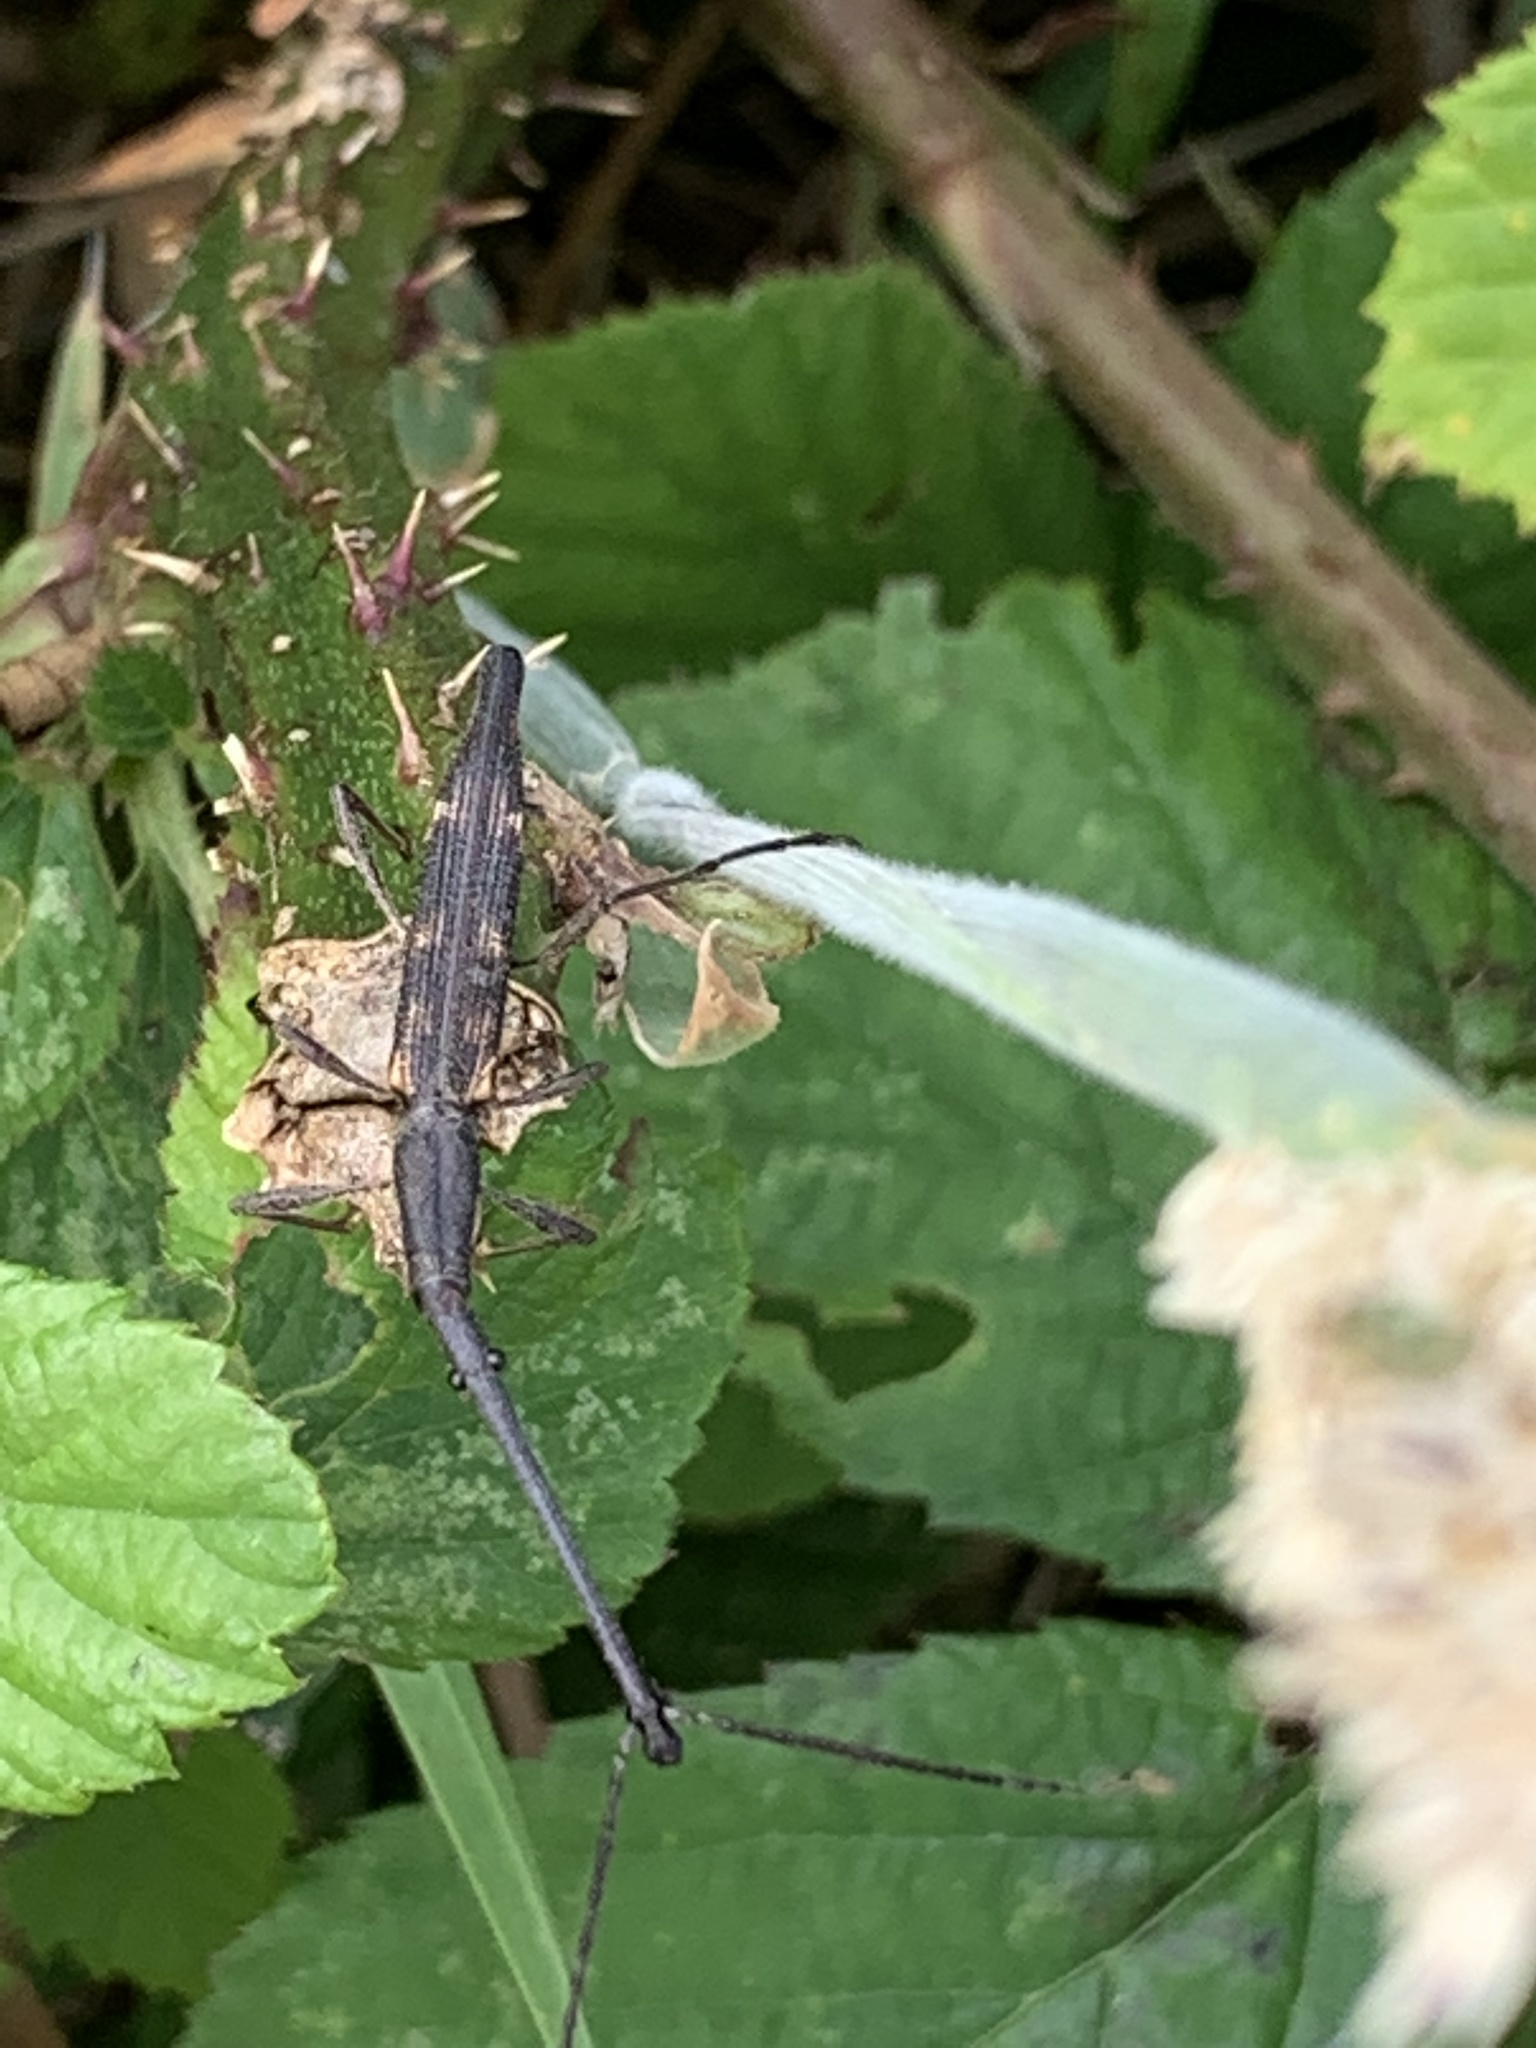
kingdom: Animalia
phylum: Arthropoda
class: Insecta
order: Coleoptera
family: Brentidae
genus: Lasiorhynchus
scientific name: Lasiorhynchus barbicornis
